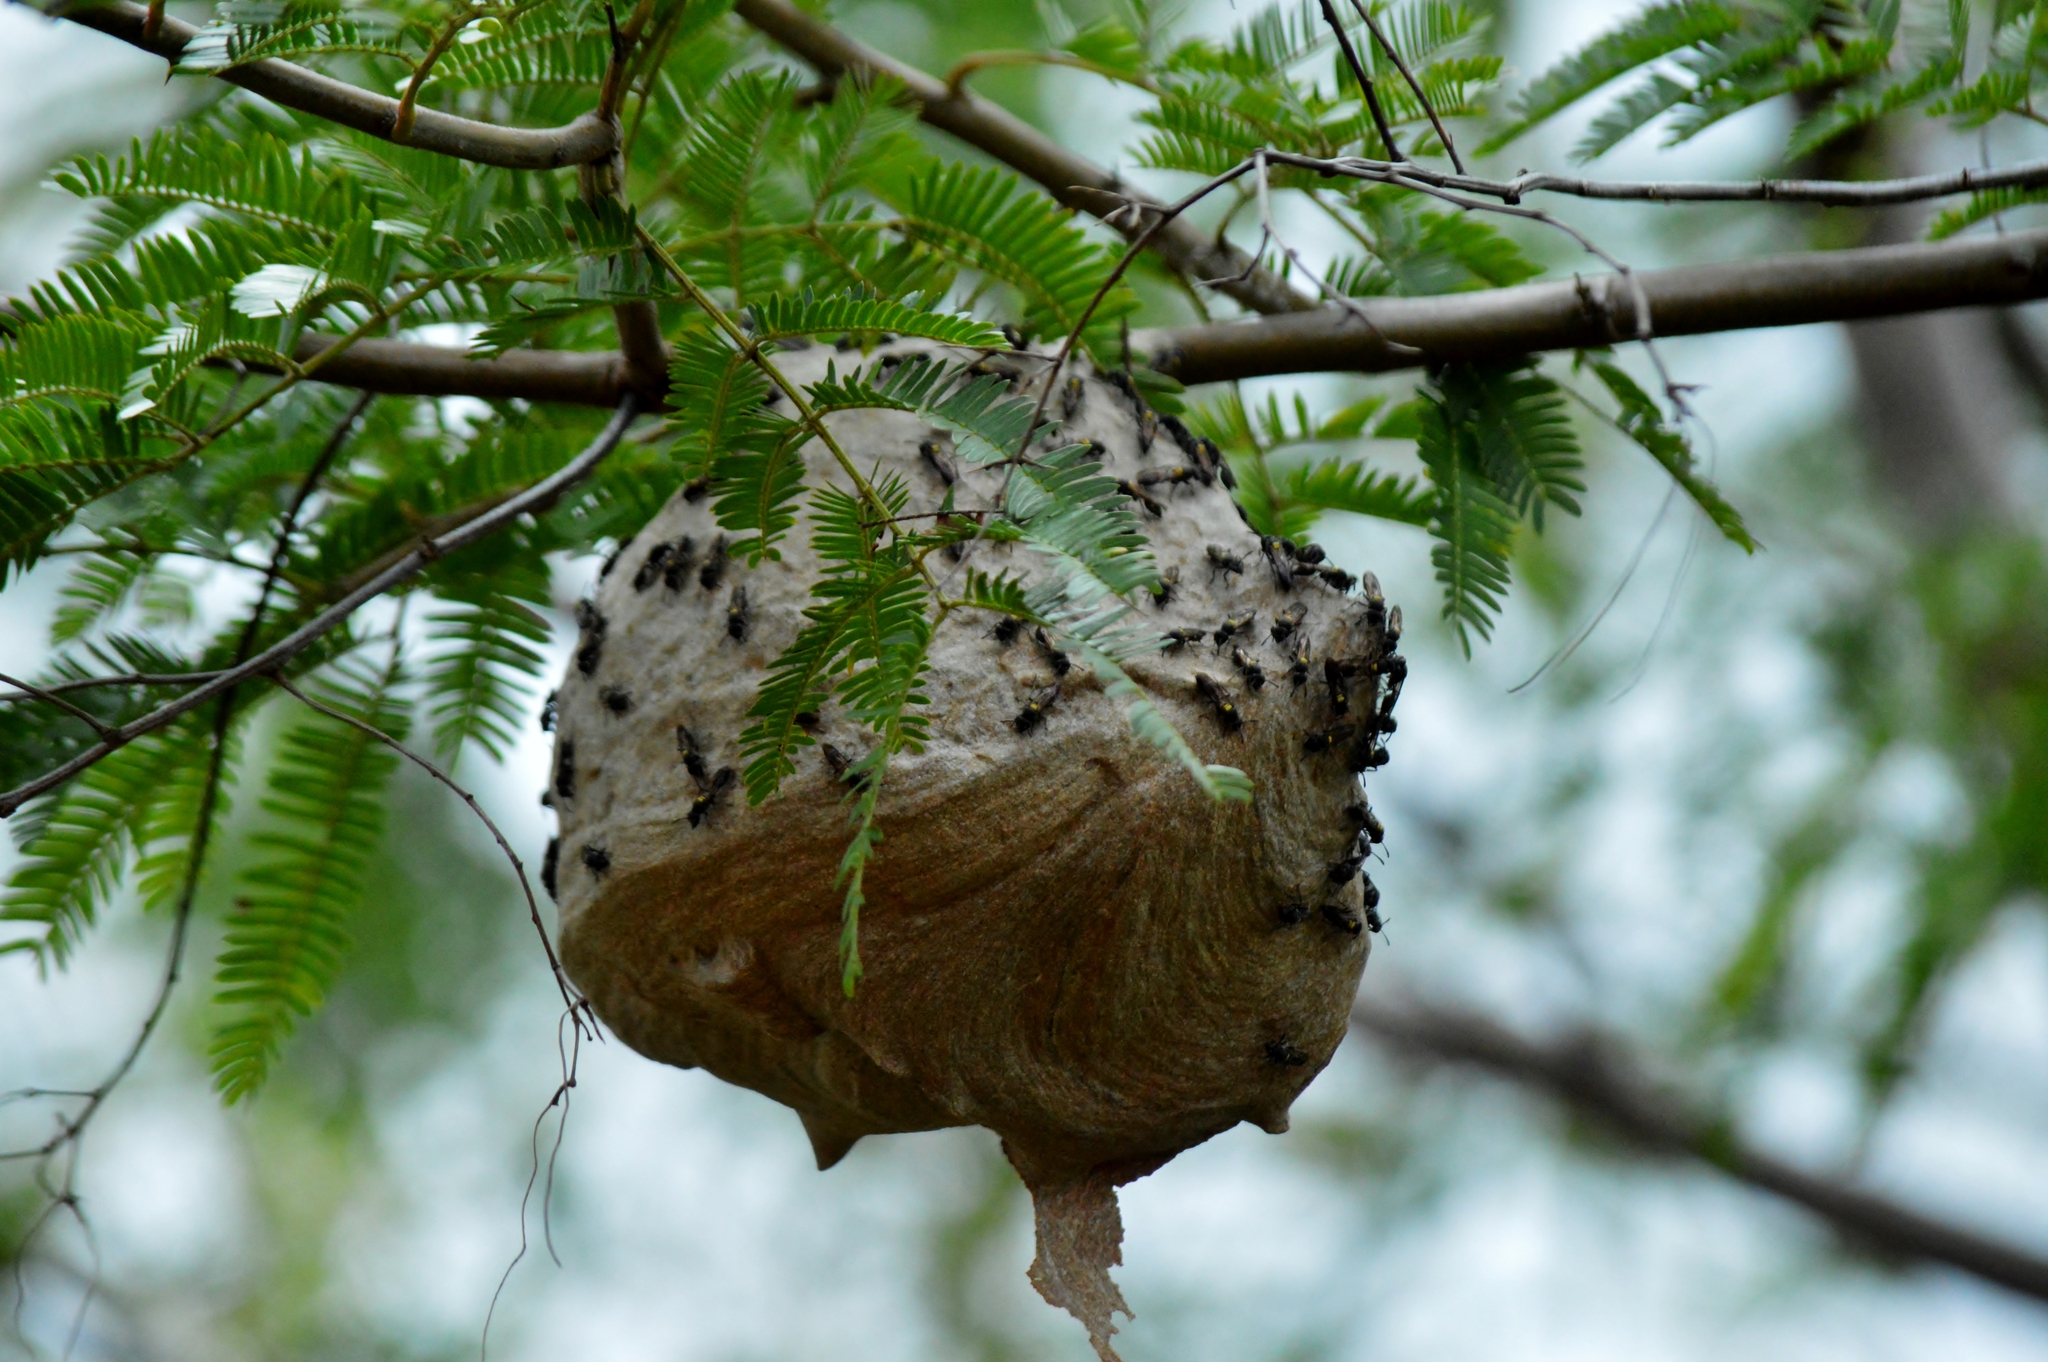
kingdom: Animalia
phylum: Arthropoda
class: Insecta
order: Hymenoptera
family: Eumenidae
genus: Polybia
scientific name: Polybia paulista
